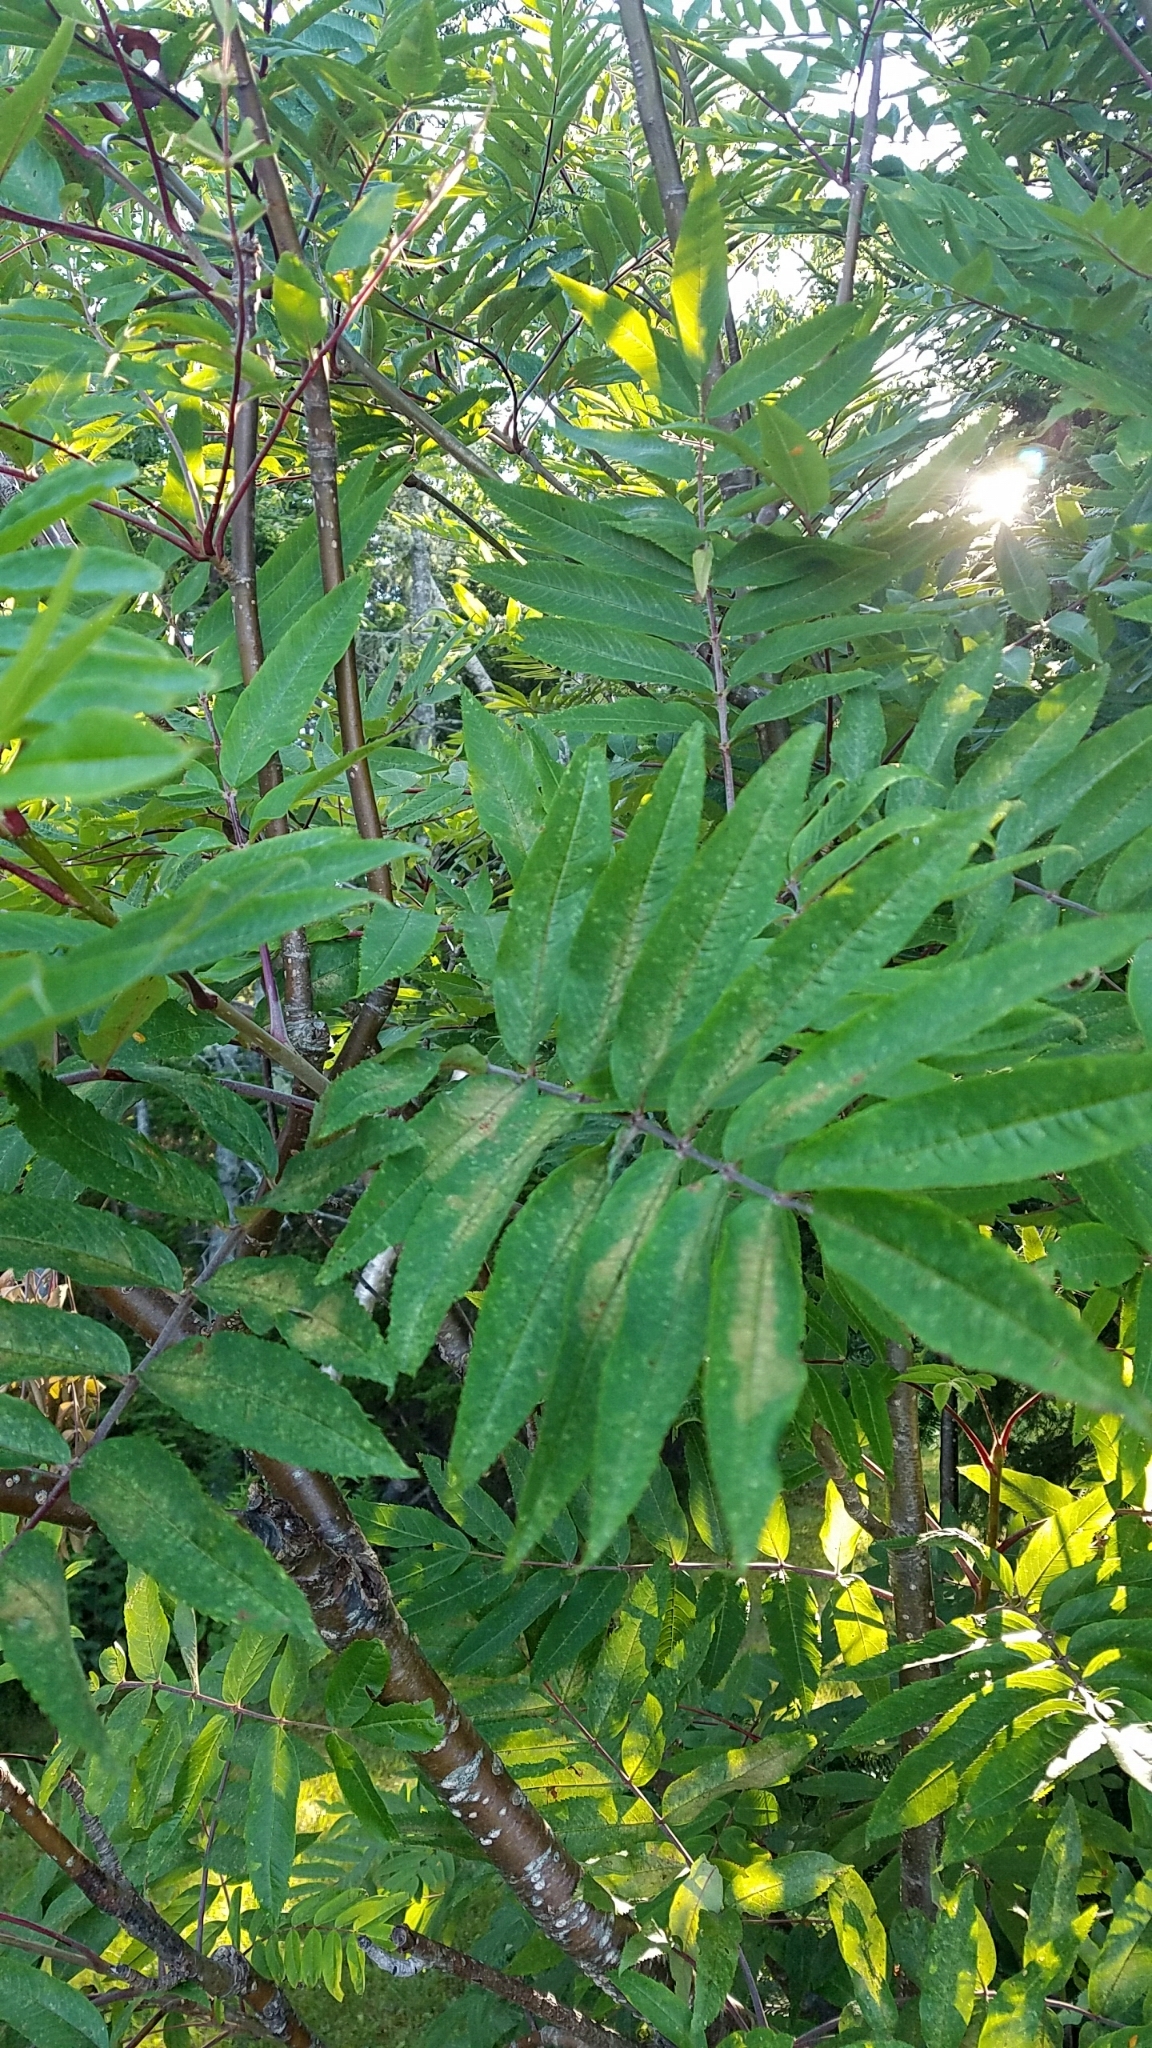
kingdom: Plantae
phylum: Tracheophyta
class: Magnoliopsida
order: Rosales
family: Rosaceae
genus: Sorbus
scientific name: Sorbus americana
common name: American mountain-ash
